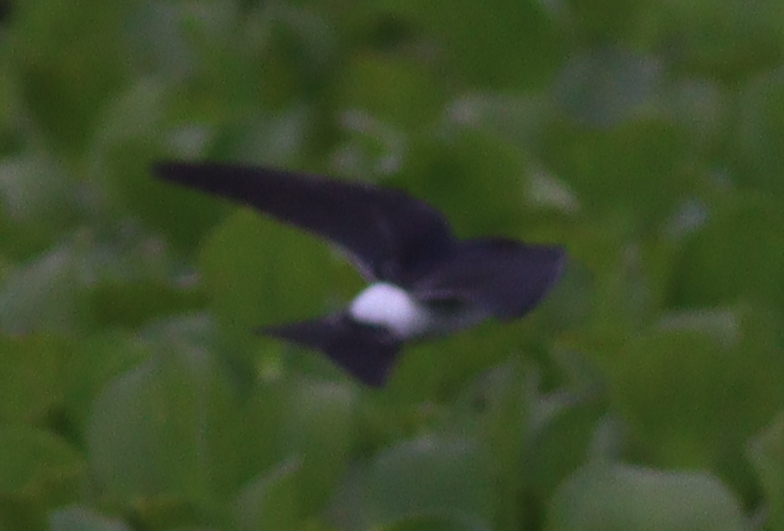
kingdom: Animalia
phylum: Chordata
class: Aves
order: Passeriformes
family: Hirundinidae
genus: Tachycineta
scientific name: Tachycineta leucorrhoa
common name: White-rumped swallow
